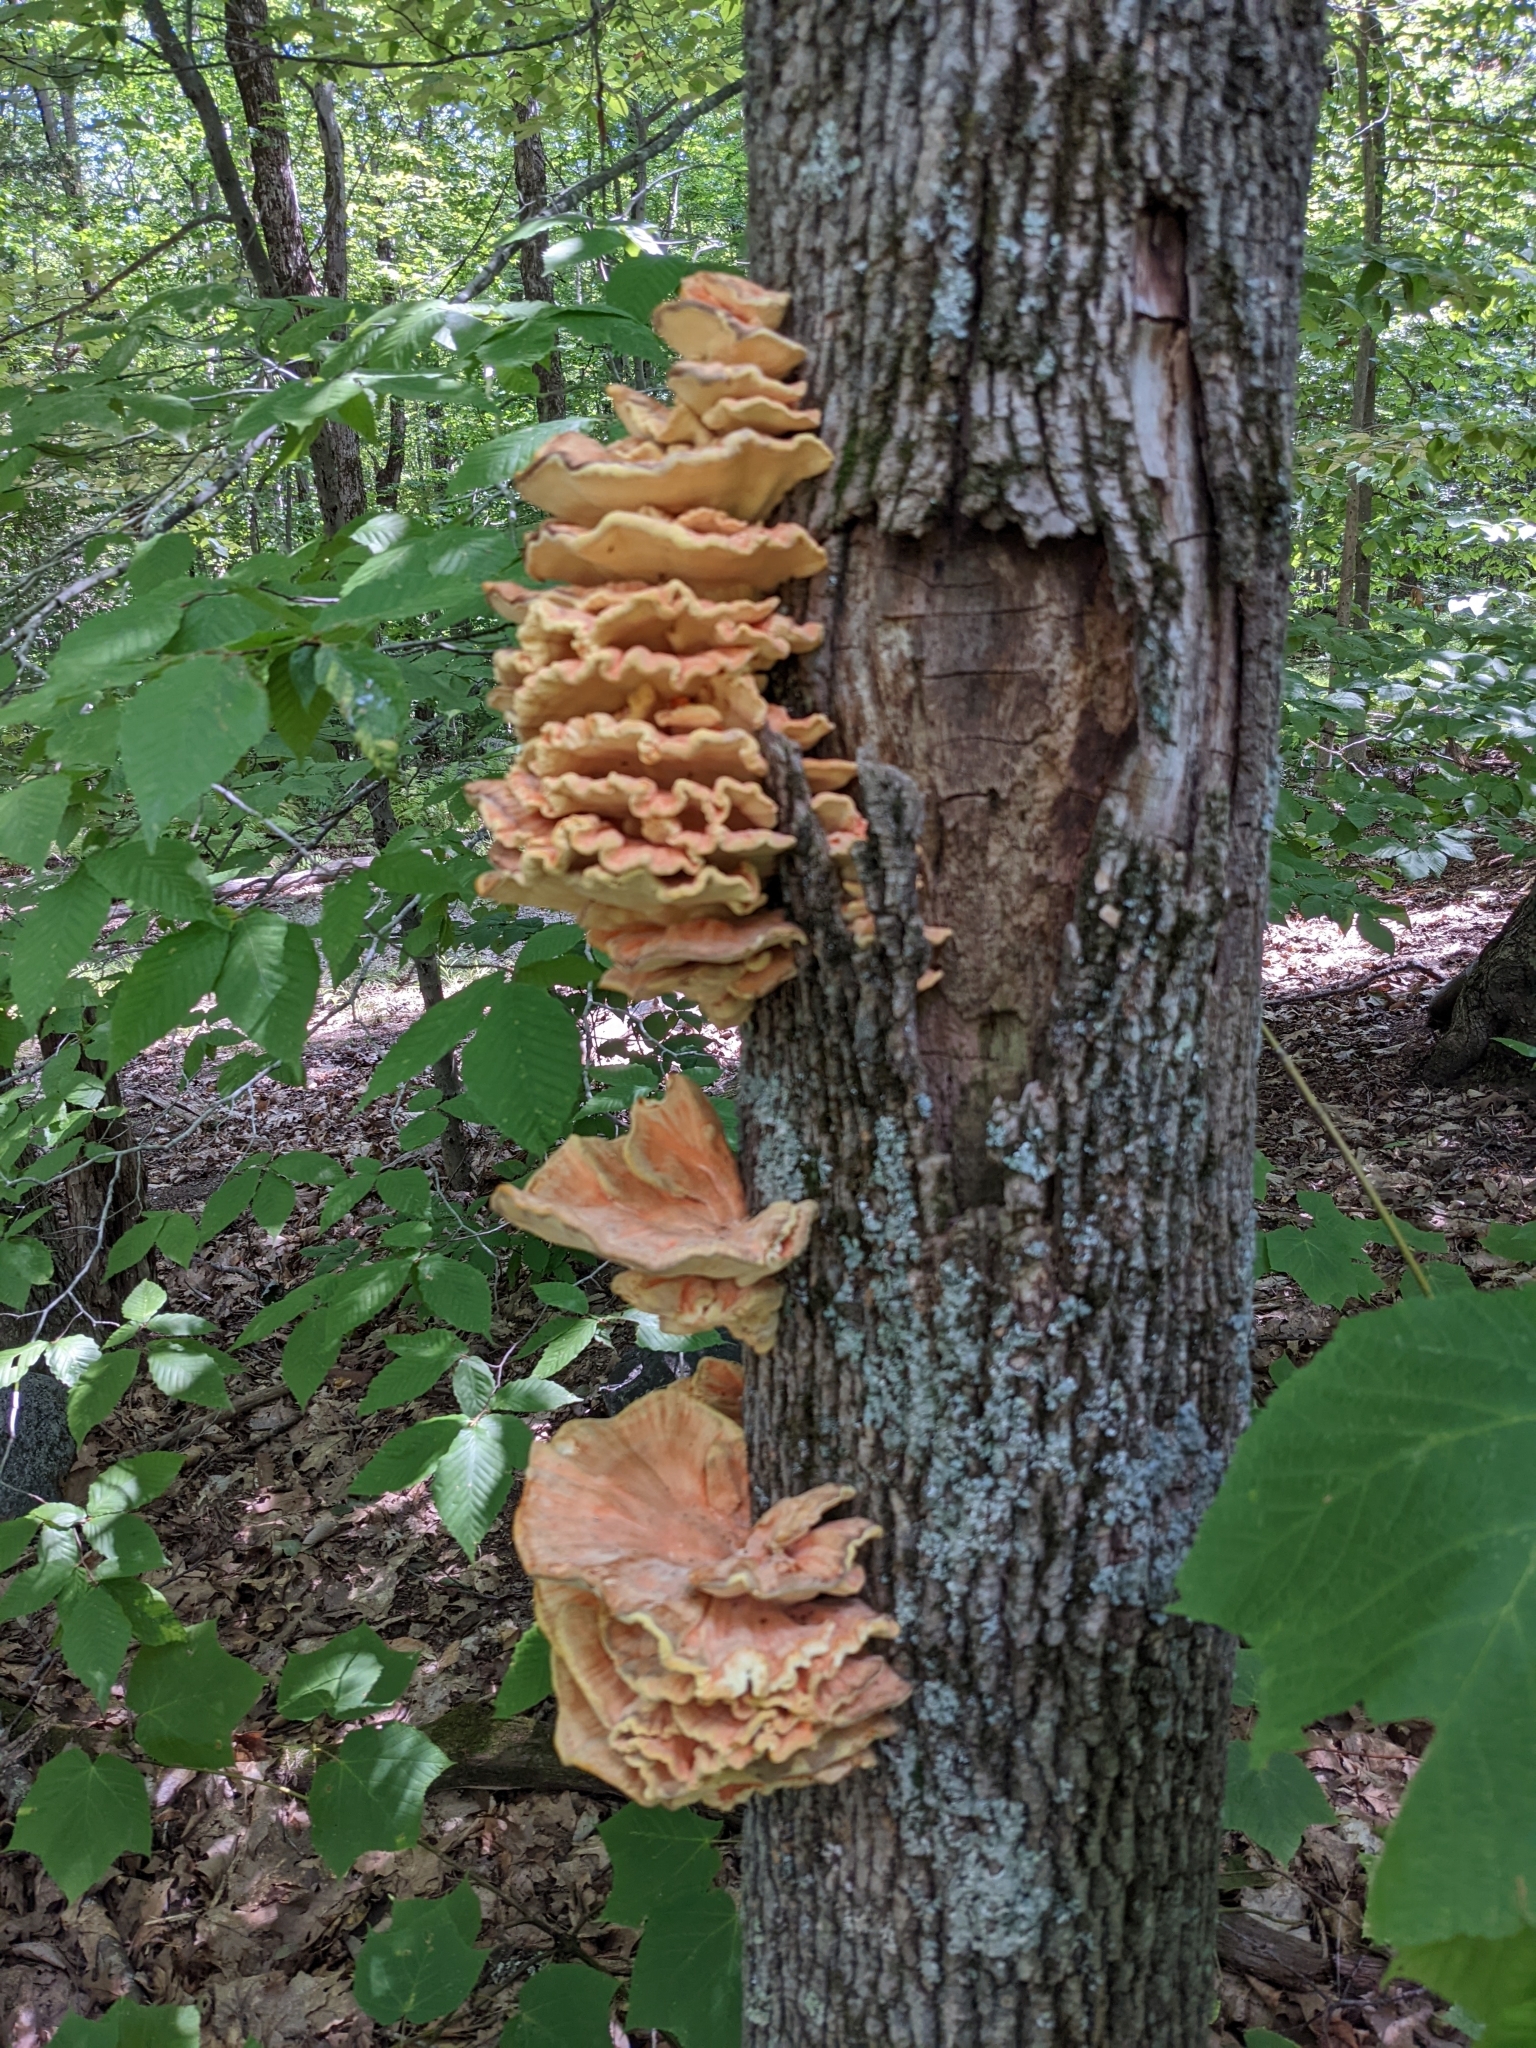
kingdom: Fungi
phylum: Basidiomycota
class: Agaricomycetes
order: Polyporales
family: Laetiporaceae
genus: Laetiporus
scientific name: Laetiporus sulphureus
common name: Chicken of the woods
